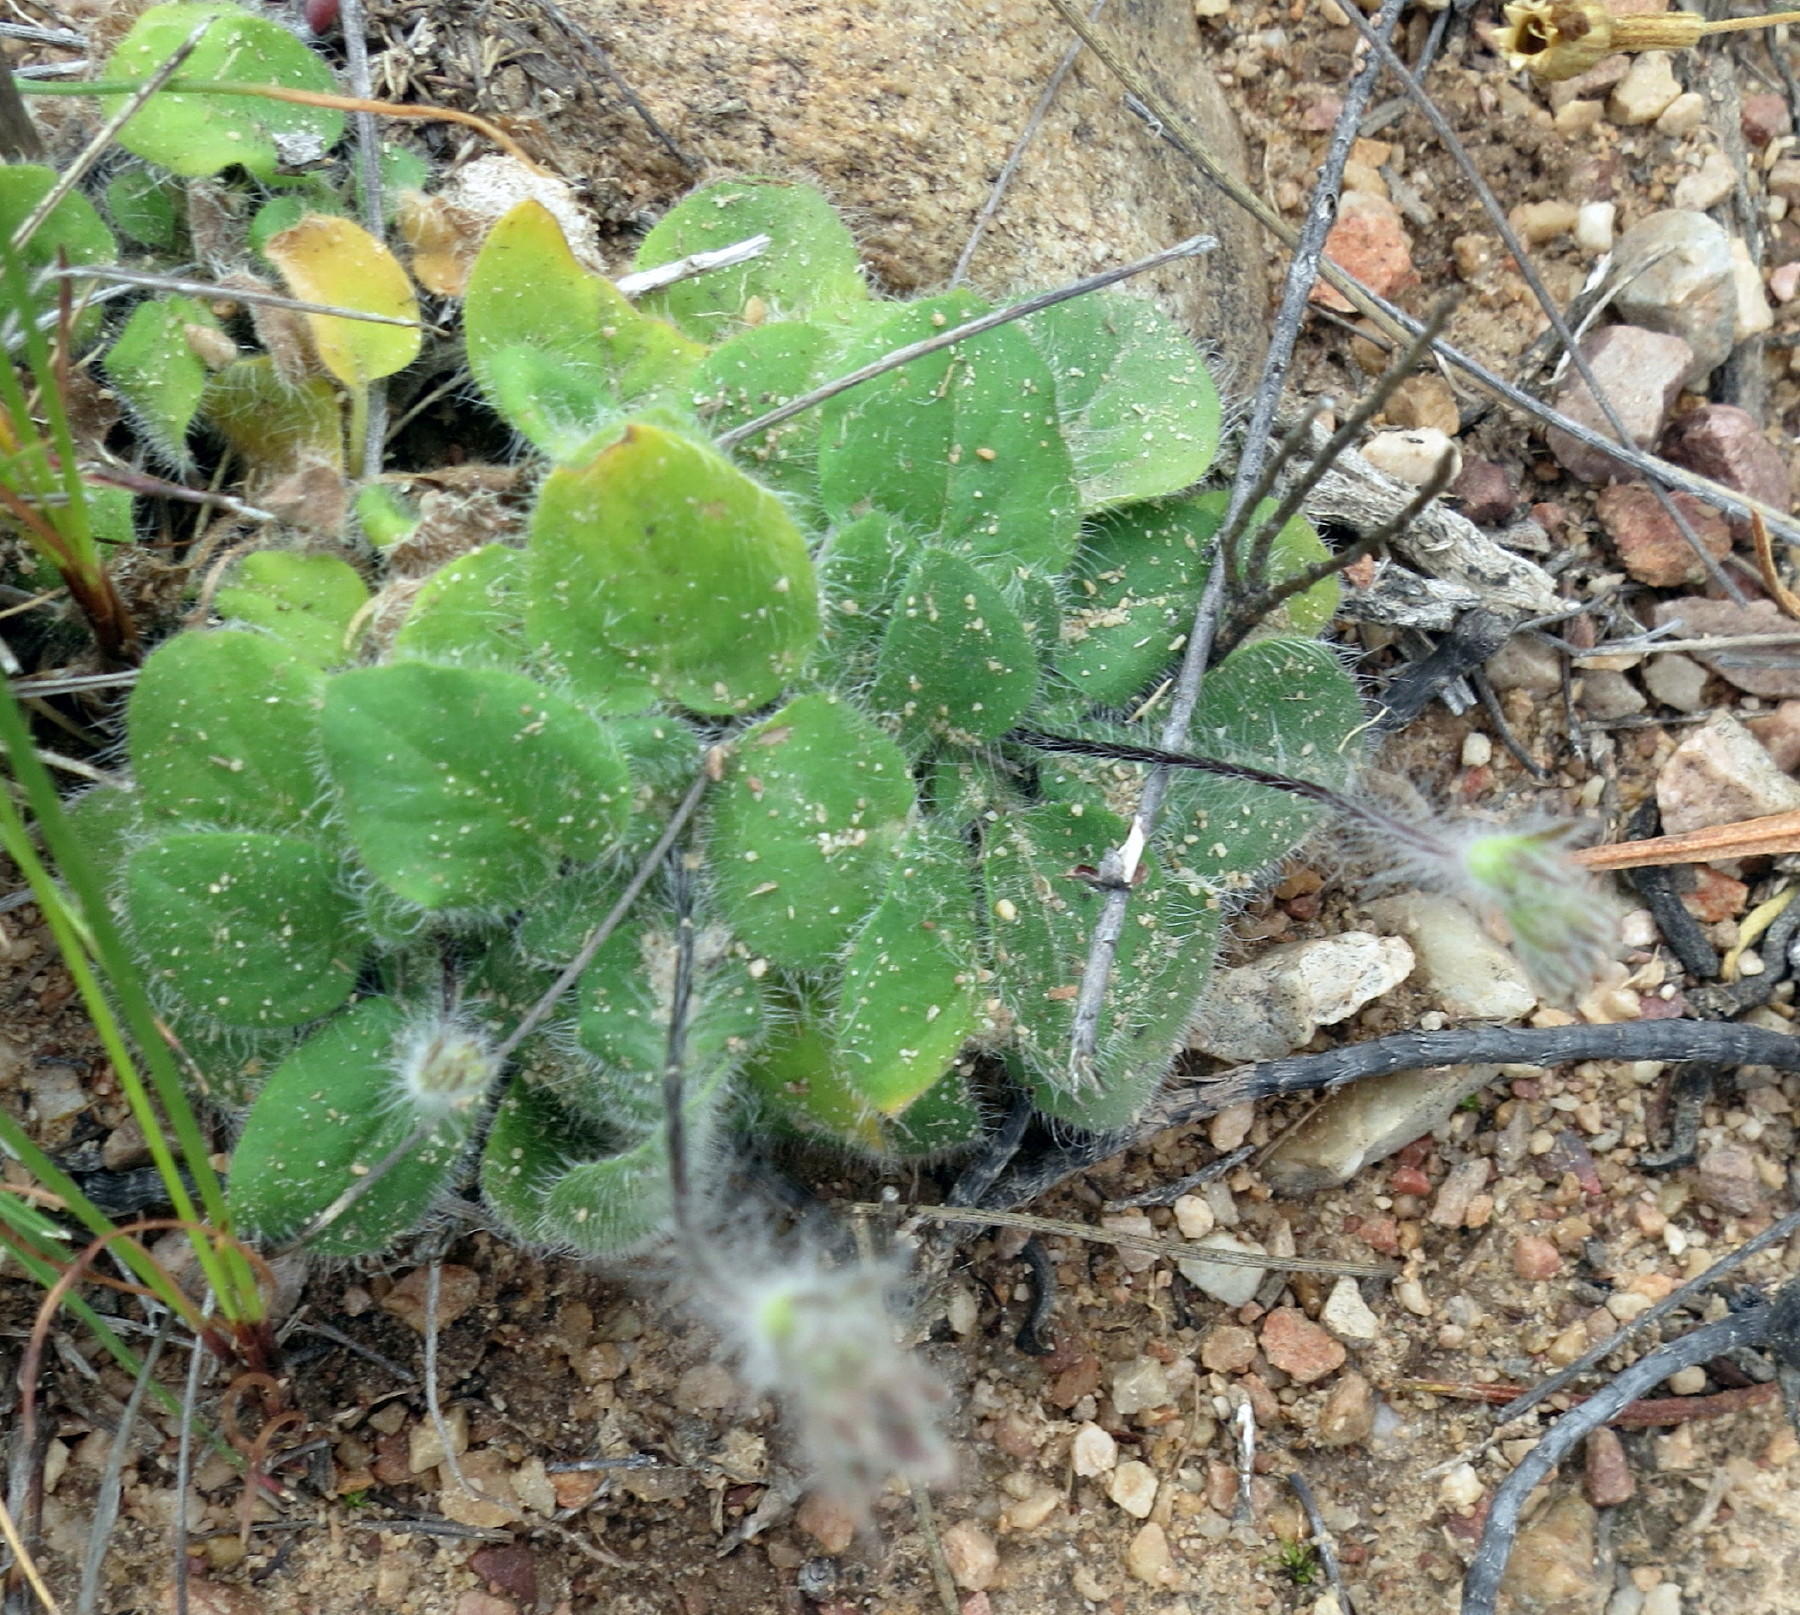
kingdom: Plantae
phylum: Tracheophyta
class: Magnoliopsida
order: Geraniales
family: Geraniaceae
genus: Pelargonium
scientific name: Pelargonium ladysmithianum
